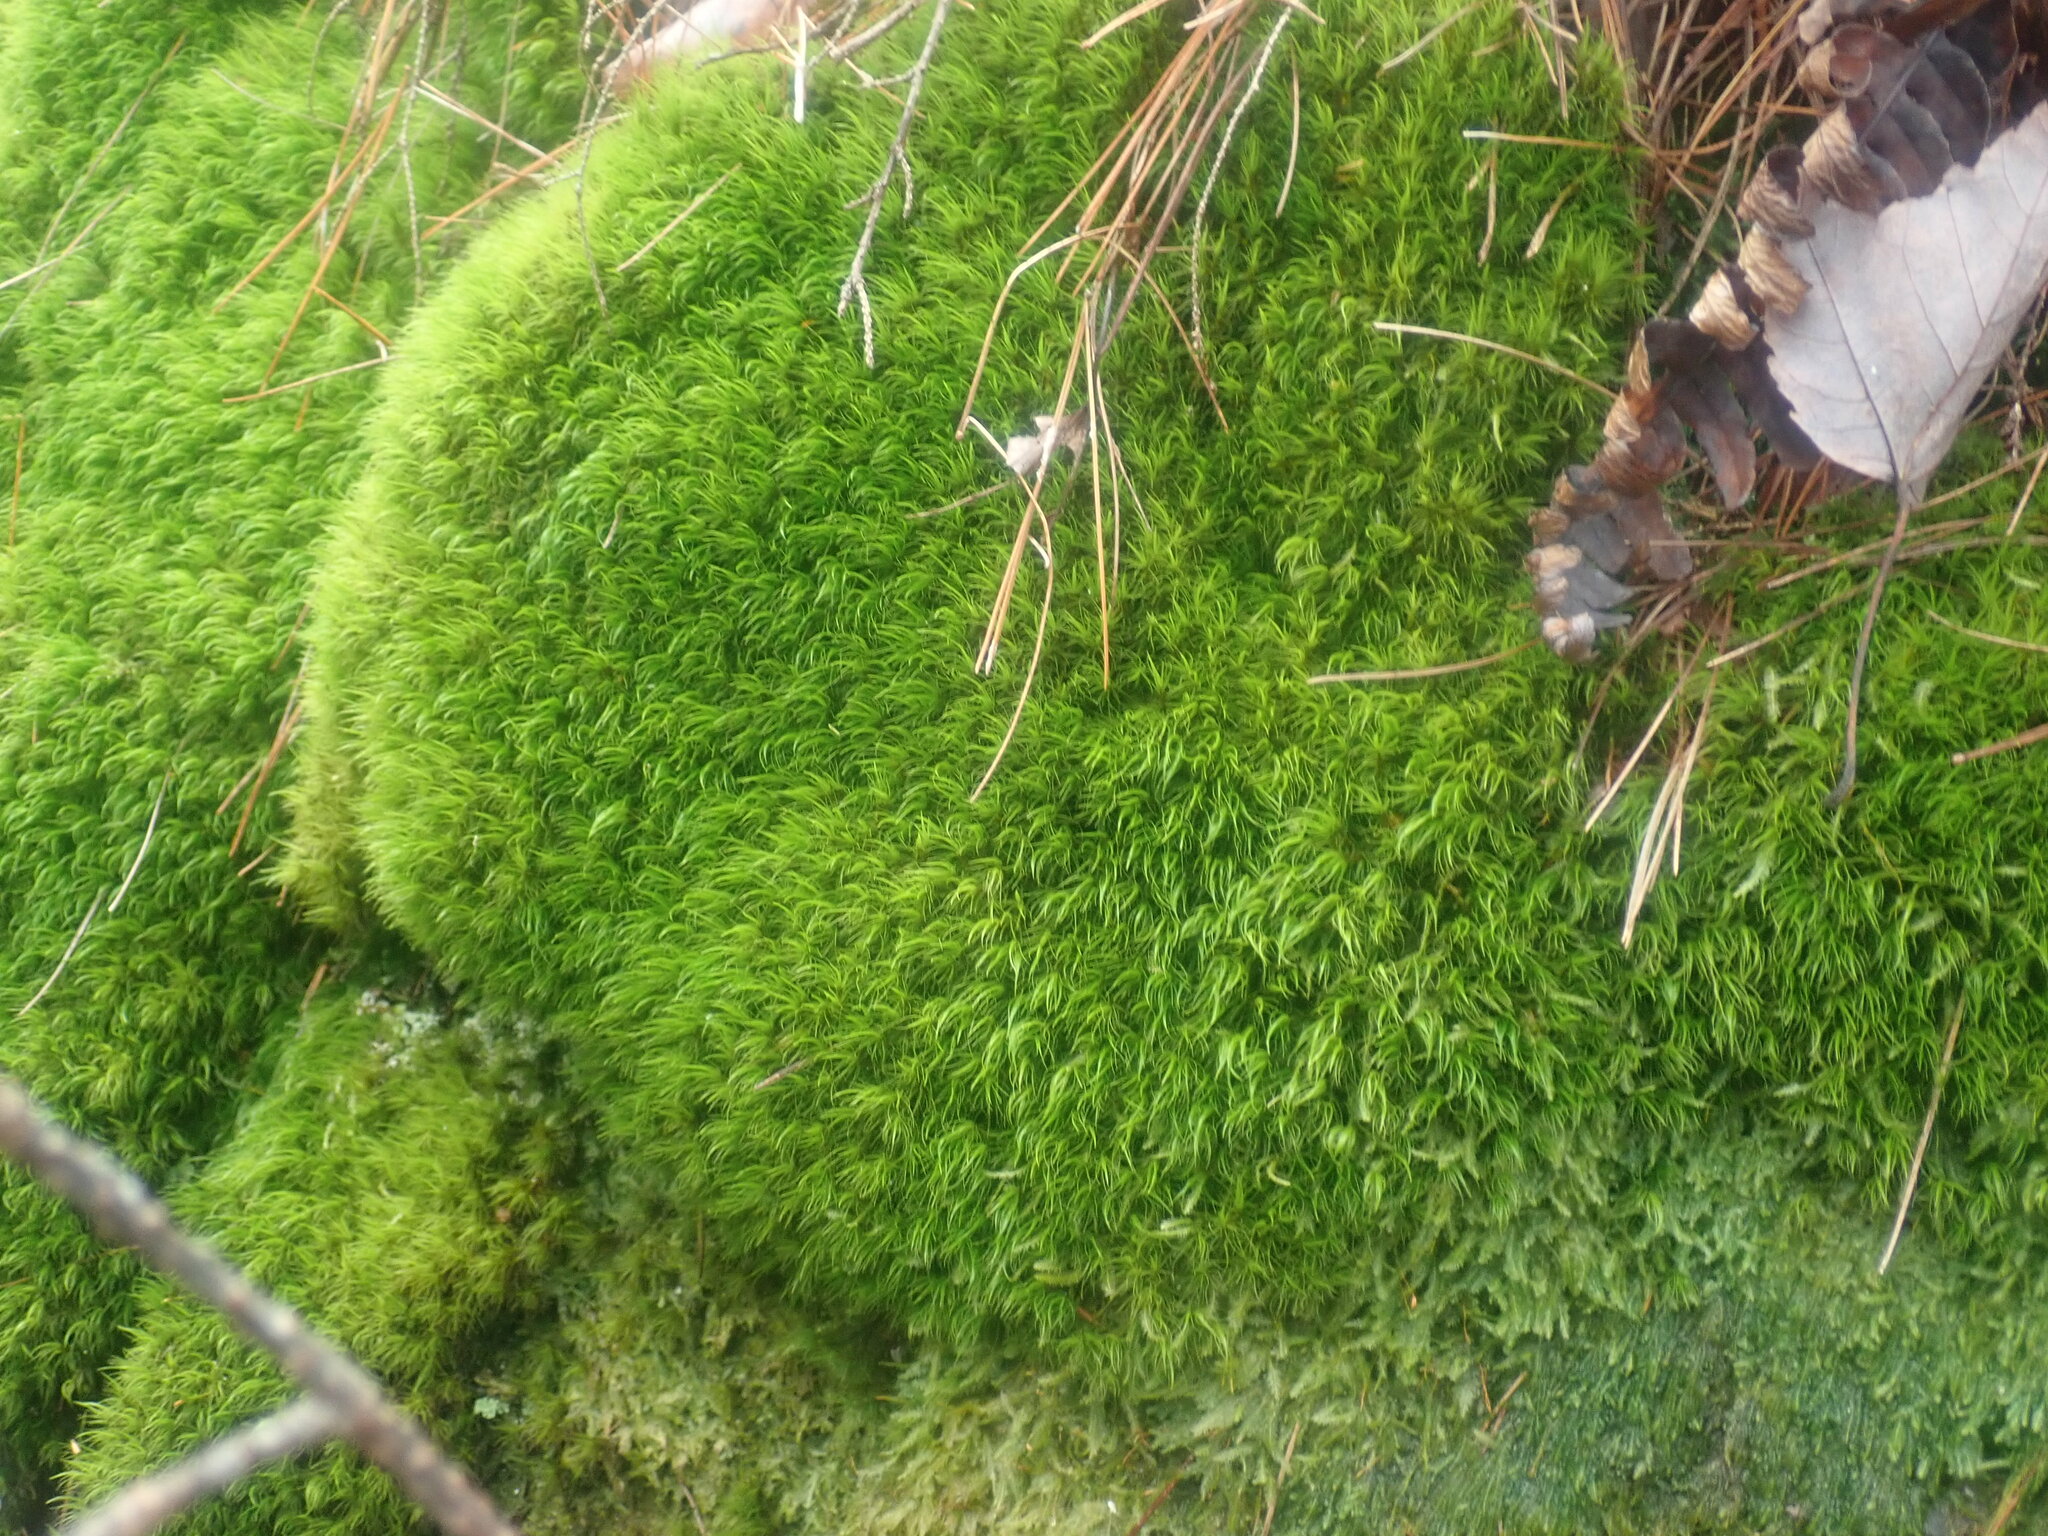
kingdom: Plantae
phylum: Bryophyta
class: Bryopsida
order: Dicranales
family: Dicranaceae
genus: Dicranum
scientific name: Dicranum
